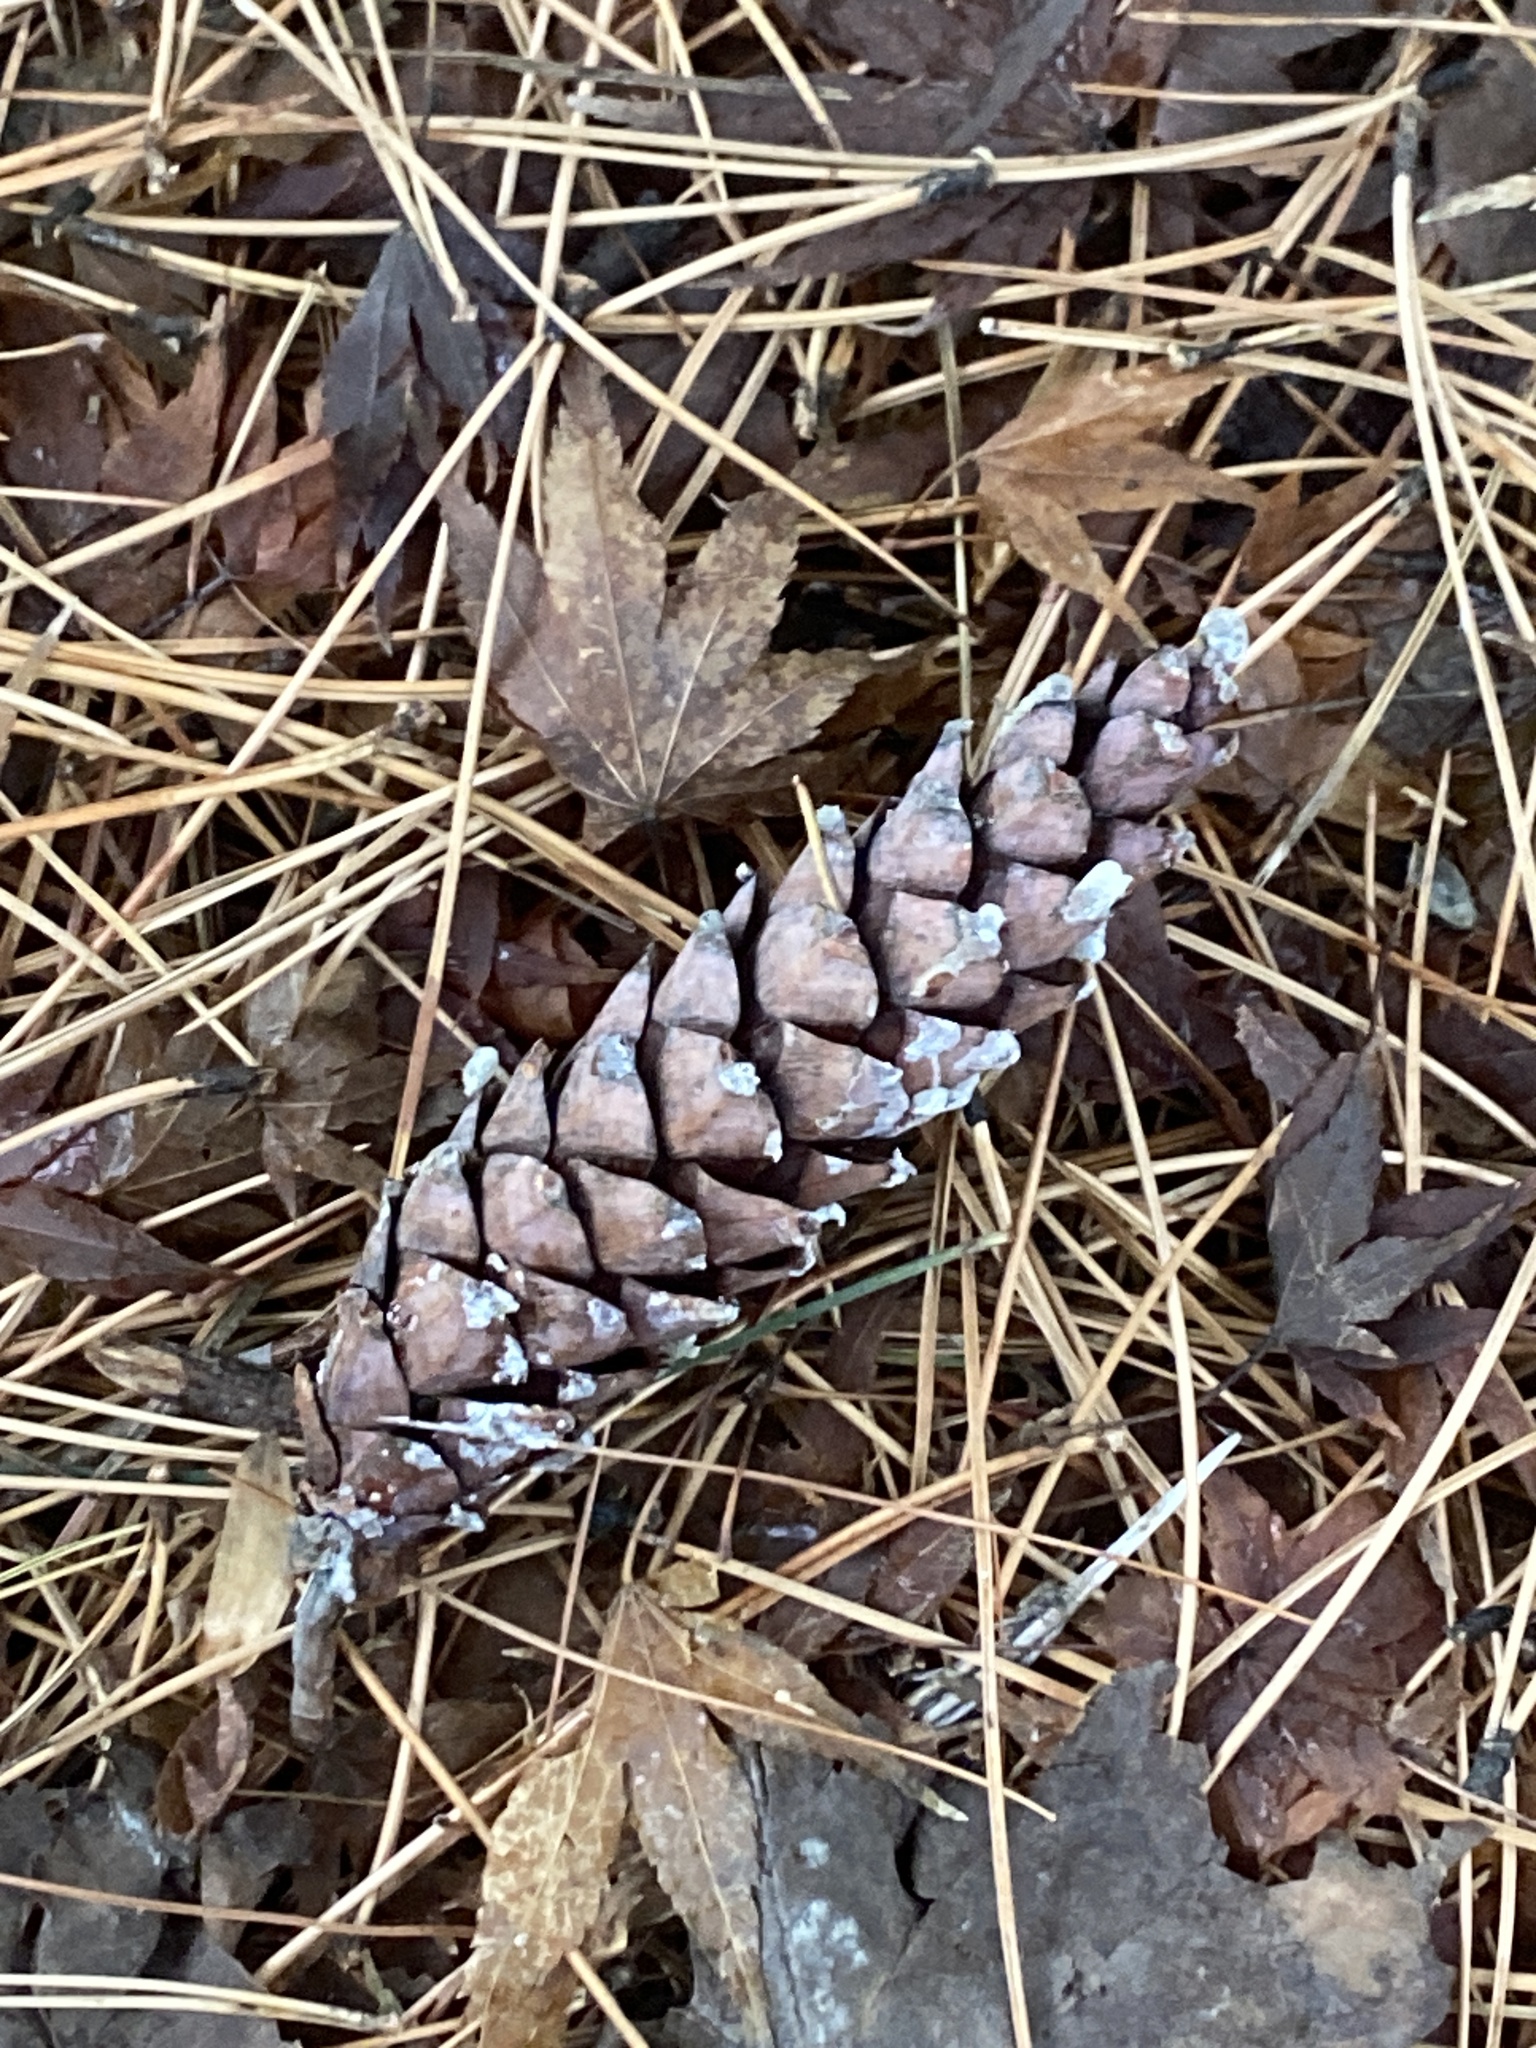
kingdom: Plantae
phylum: Tracheophyta
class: Pinopsida
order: Pinales
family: Pinaceae
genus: Pinus
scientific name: Pinus strobus
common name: Weymouth pine
